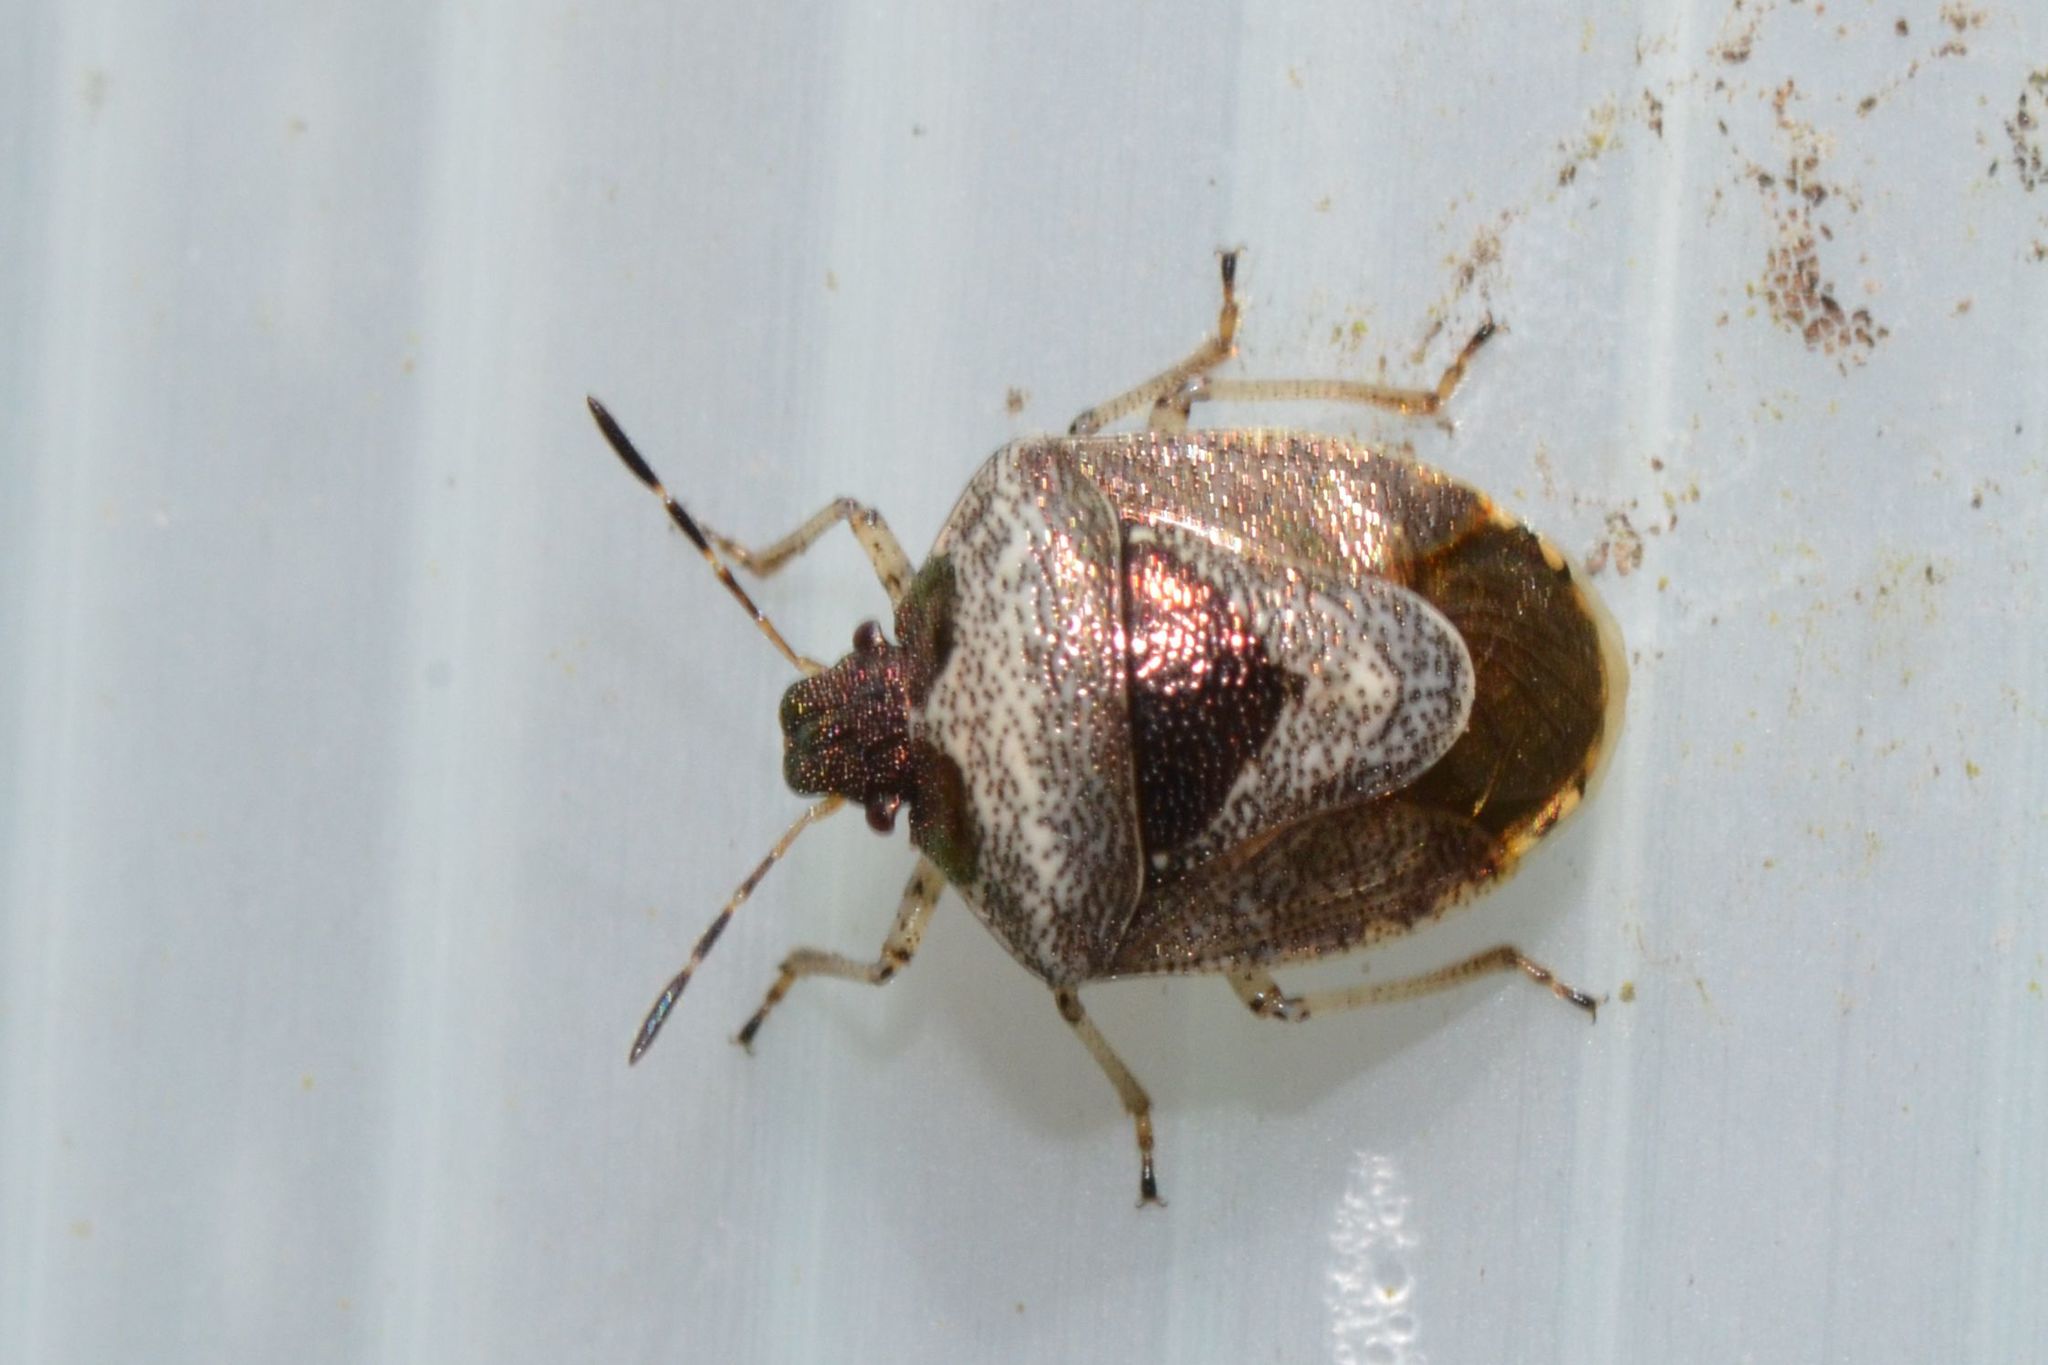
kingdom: Animalia
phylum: Arthropoda
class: Insecta
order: Hemiptera
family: Pentatomidae
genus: Eysarcoris
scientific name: Eysarcoris venustissimus
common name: Woundwort shieldbug
